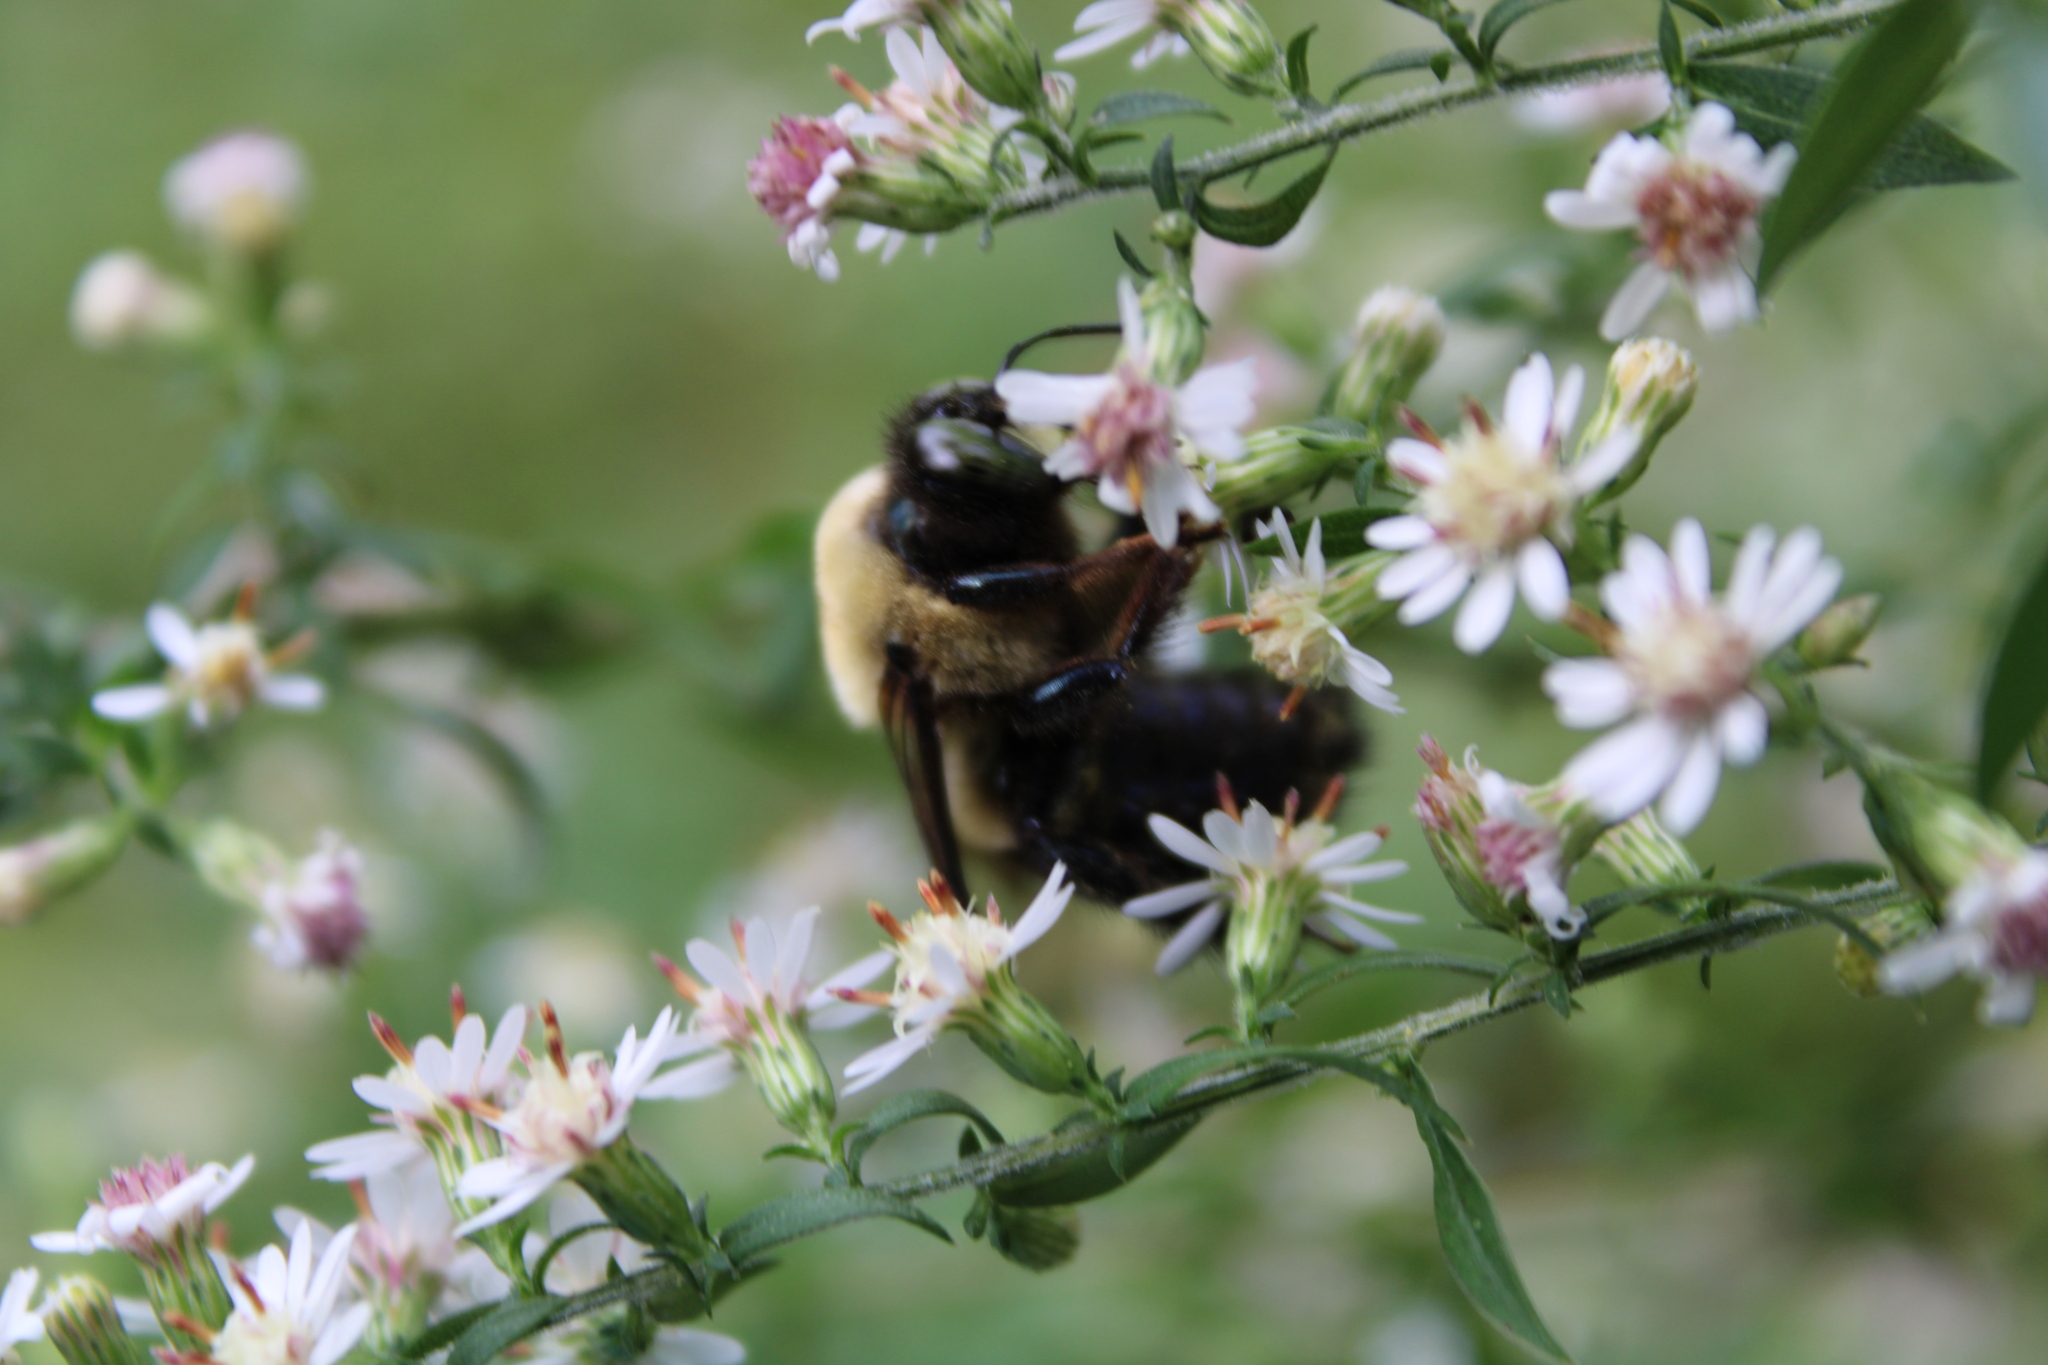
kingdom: Animalia
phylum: Arthropoda
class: Insecta
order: Hymenoptera
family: Apidae
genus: Xylocopa
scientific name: Xylocopa virginica
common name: Carpenter bee
